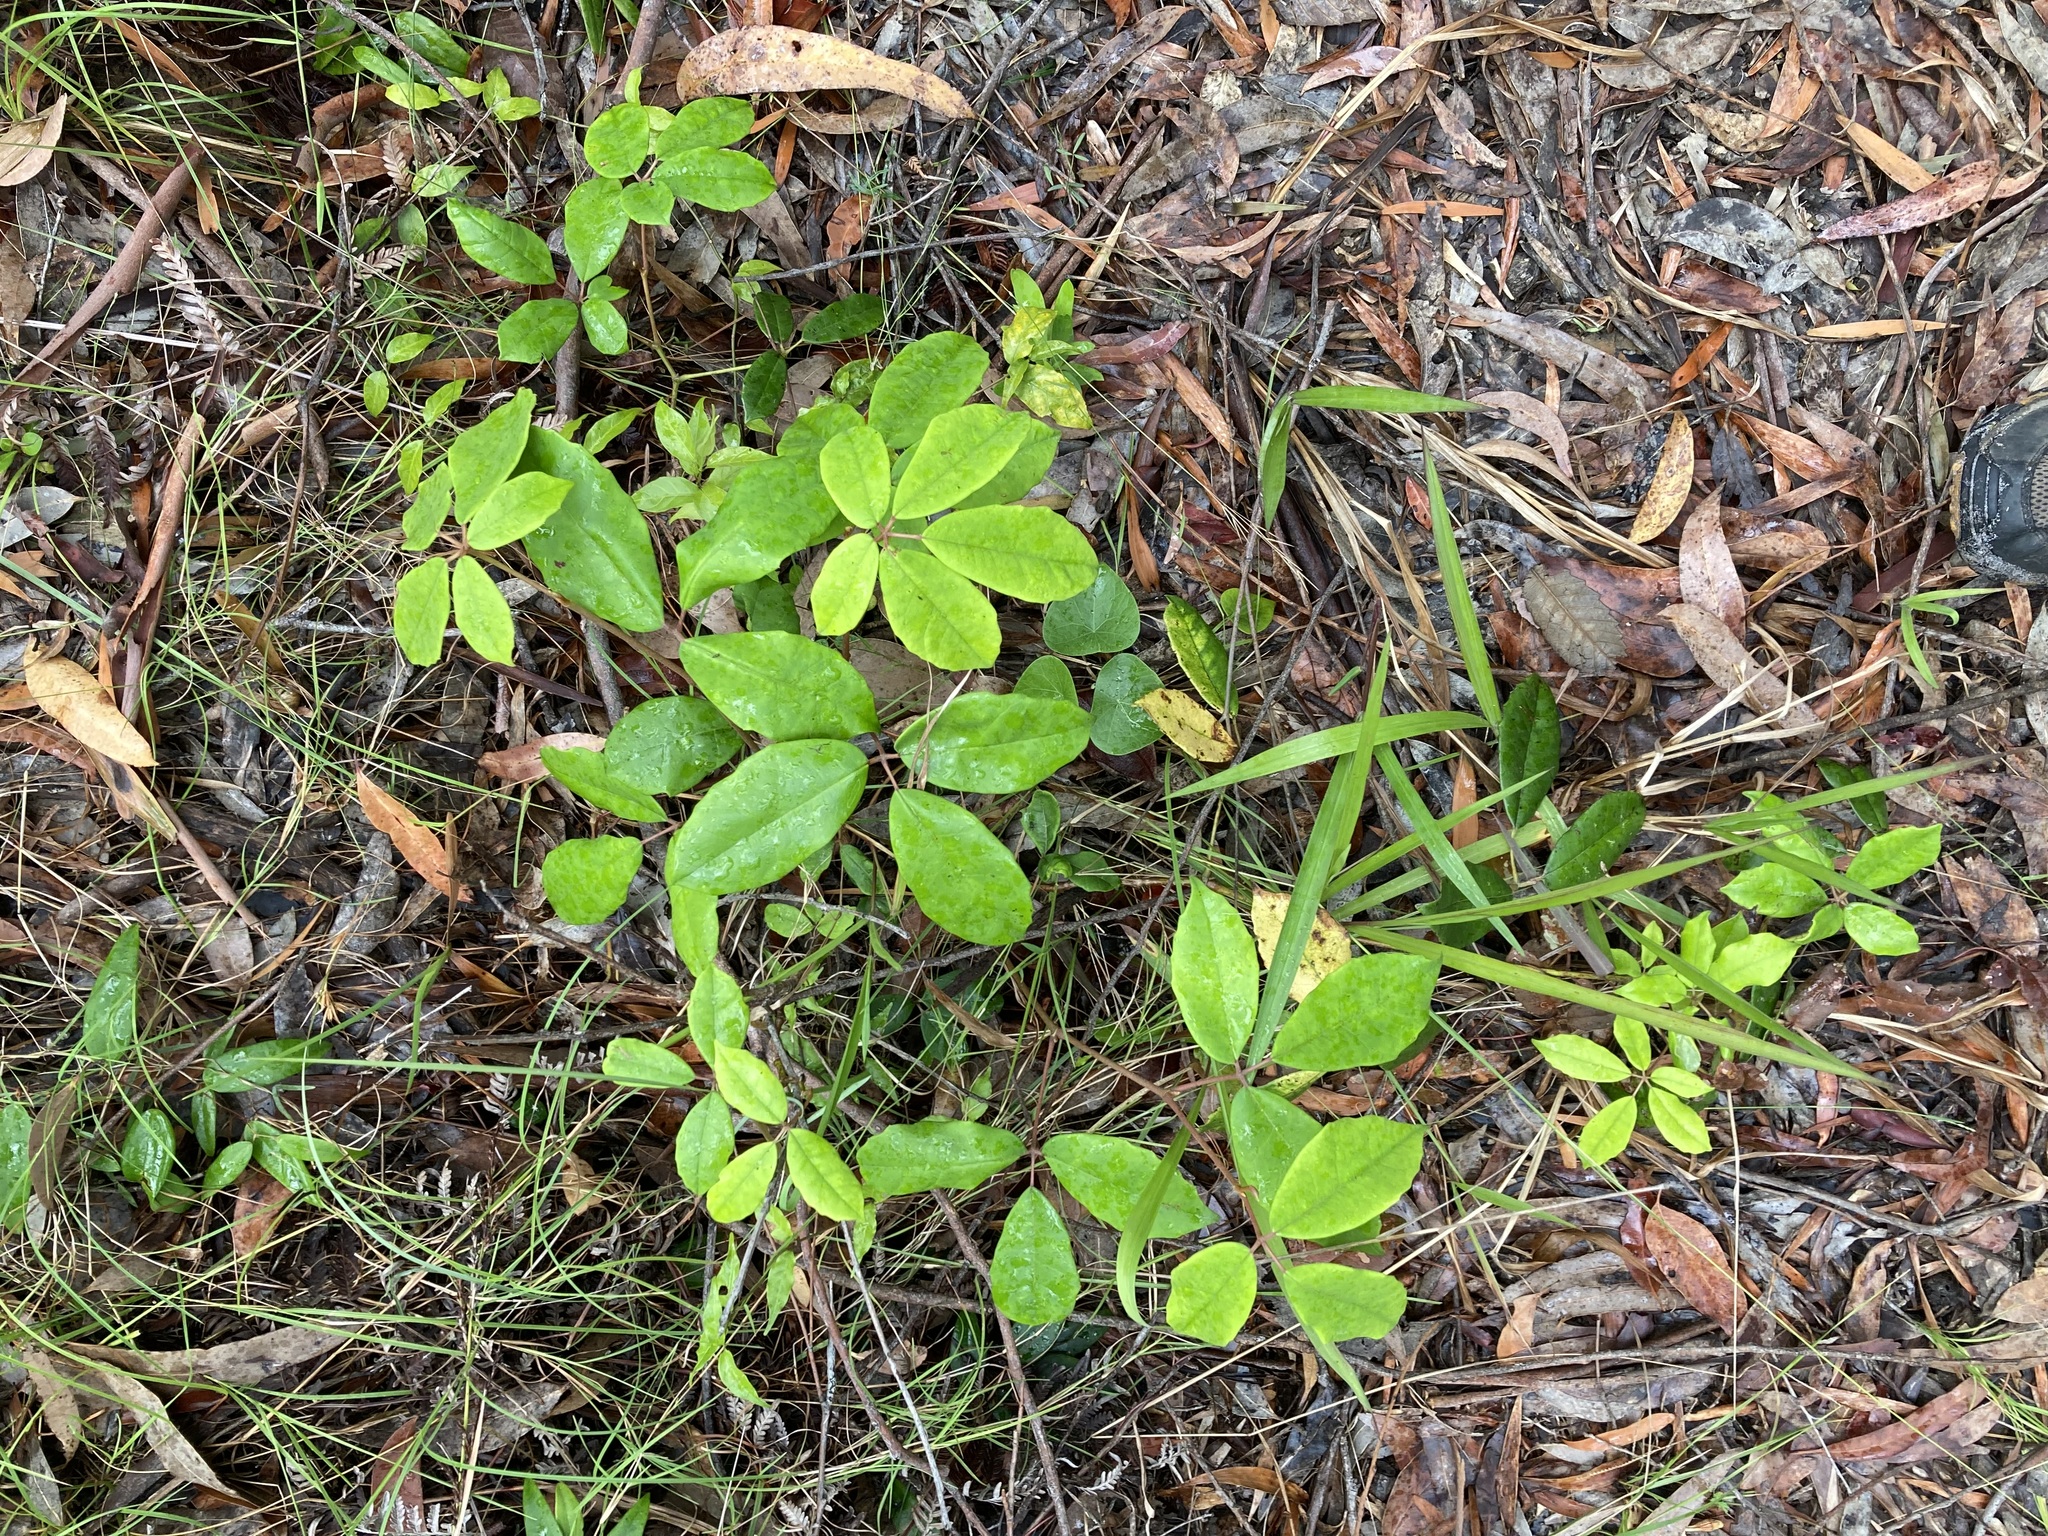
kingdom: Plantae
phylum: Tracheophyta
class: Magnoliopsida
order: Vitales
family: Vitaceae
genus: Nothocissus
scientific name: Nothocissus hypoglauca
